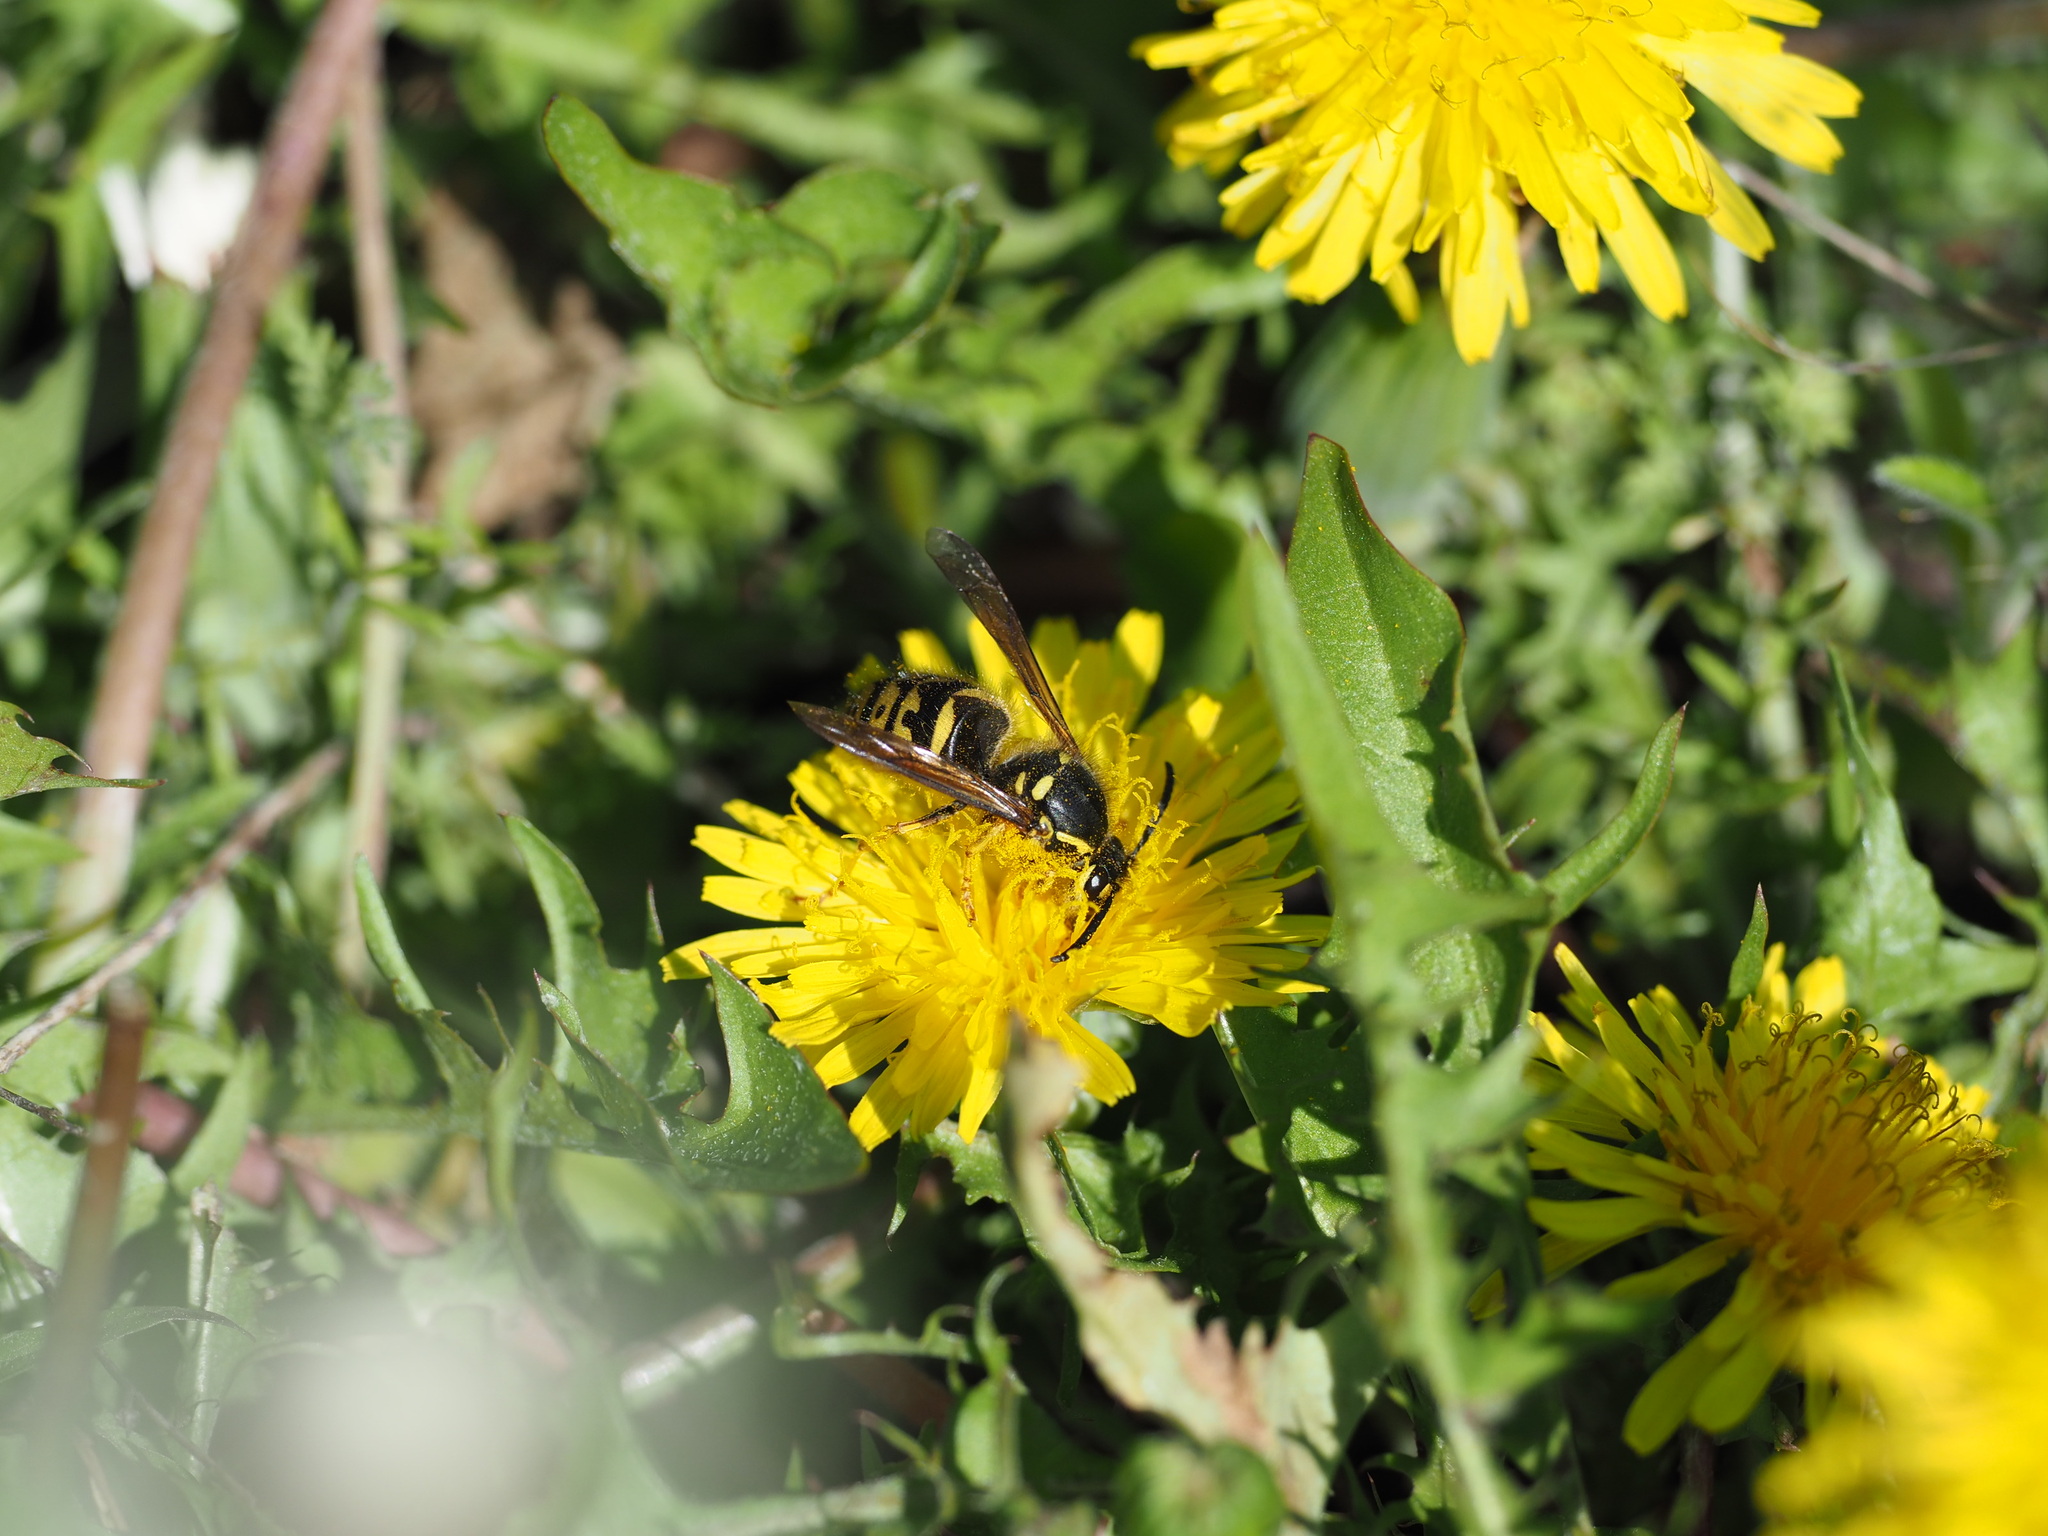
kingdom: Animalia
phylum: Arthropoda
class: Insecta
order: Hymenoptera
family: Vespidae
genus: Dolichovespula
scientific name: Dolichovespula arenaria
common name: Aerial yellowjacket
